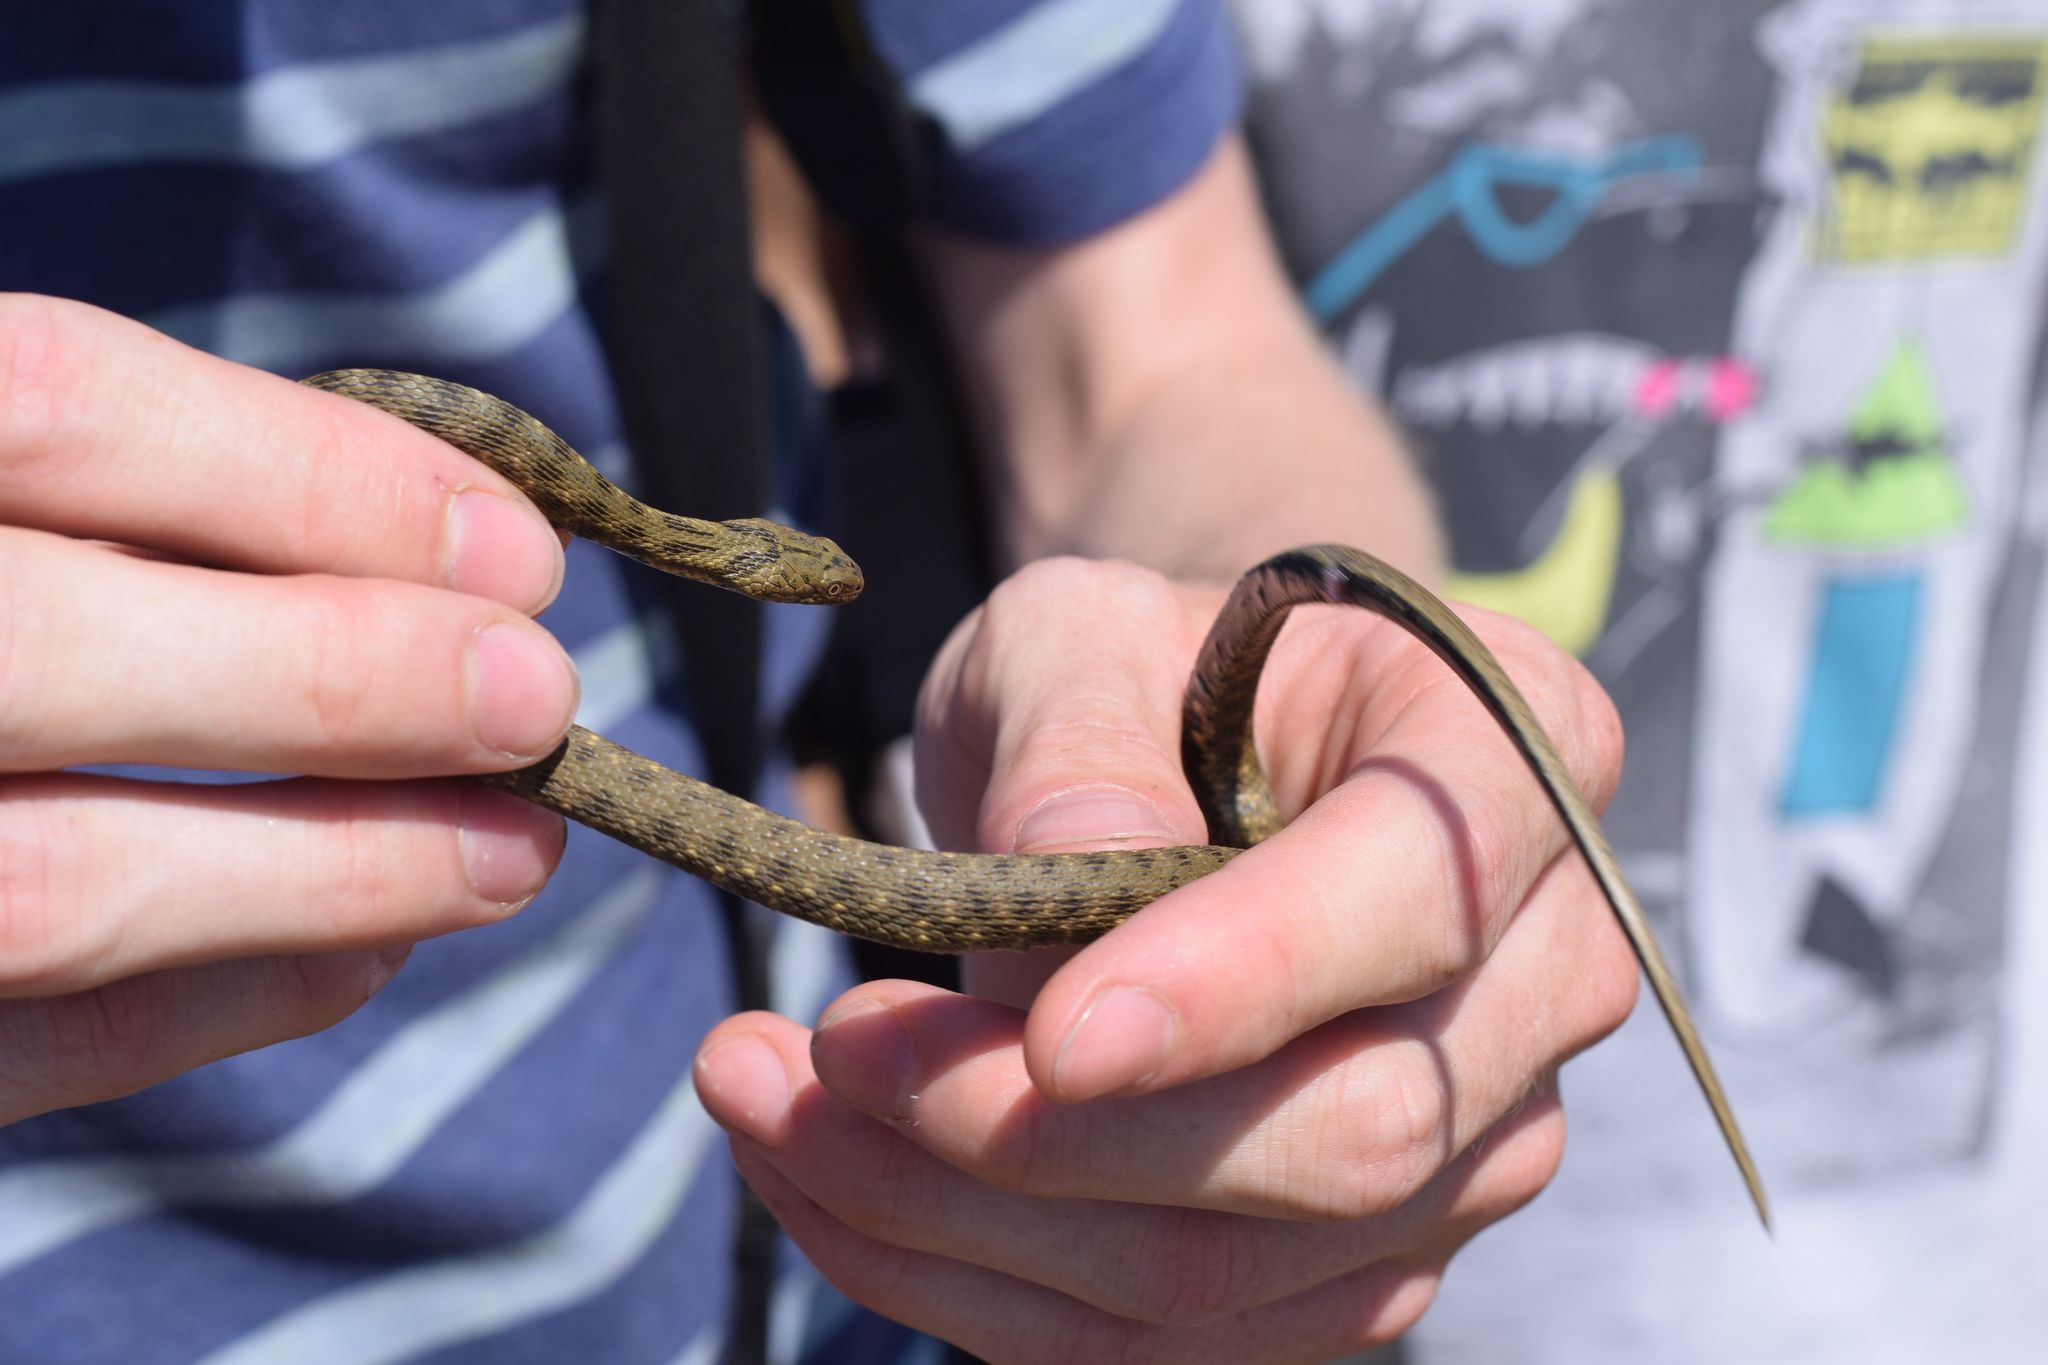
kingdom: Animalia
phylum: Chordata
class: Squamata
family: Colubridae
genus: Natrix
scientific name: Natrix tessellata
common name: Dice snake
